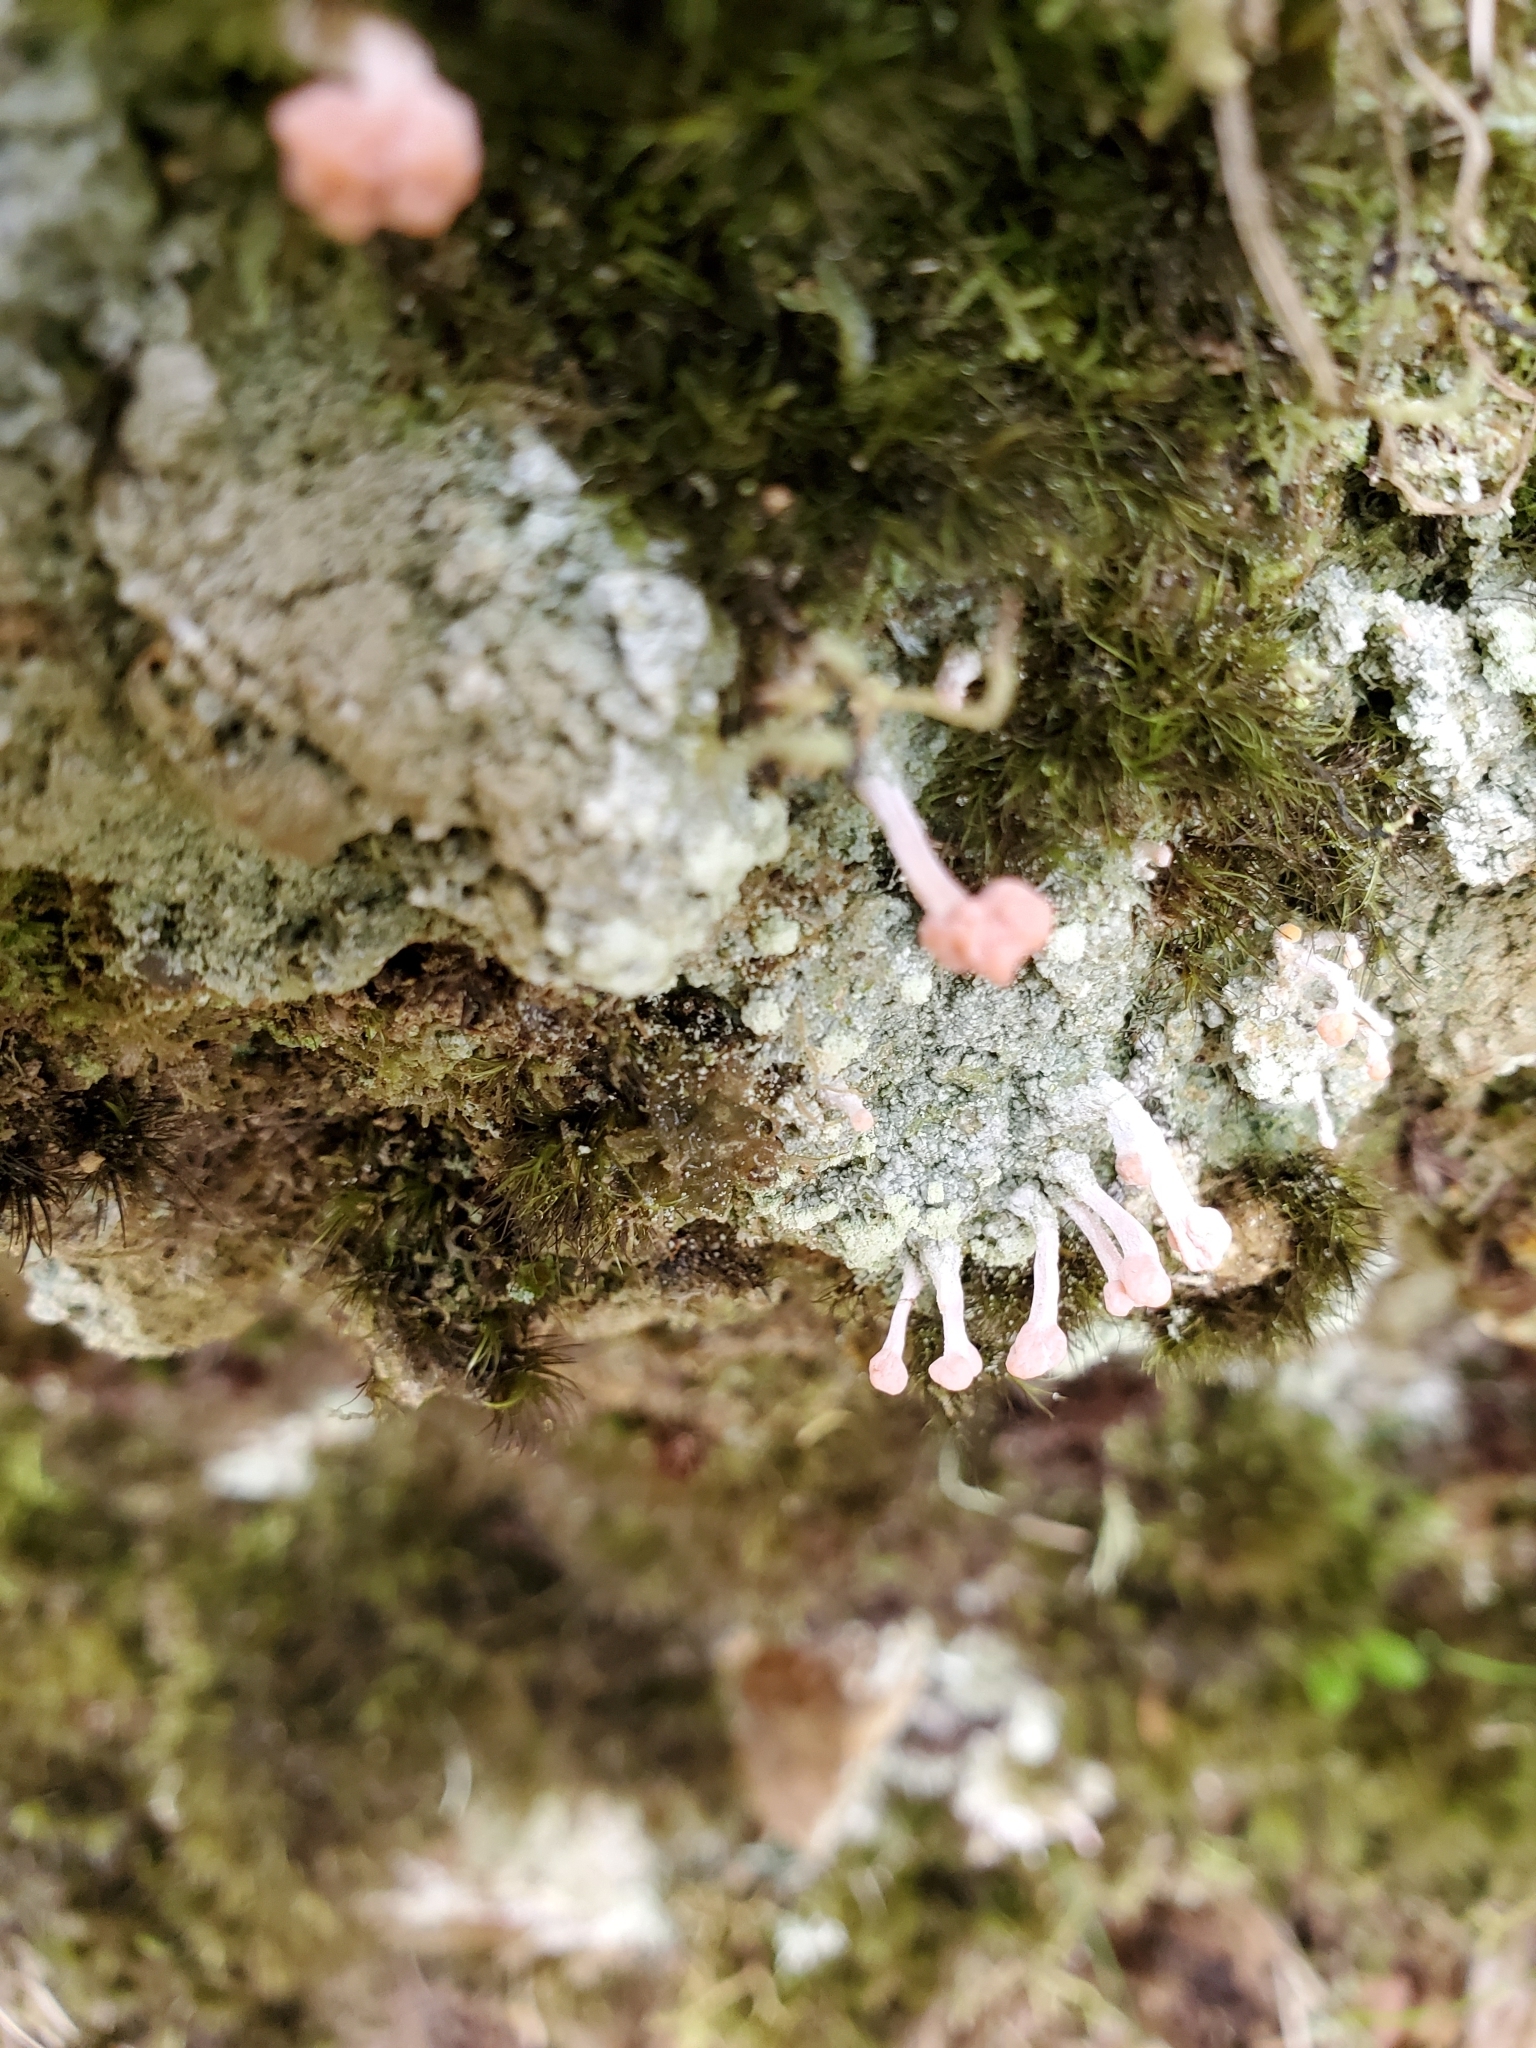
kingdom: Fungi
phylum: Ascomycota
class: Lecanoromycetes
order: Pertusariales
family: Icmadophilaceae
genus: Dibaeis
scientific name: Dibaeis arcuata
